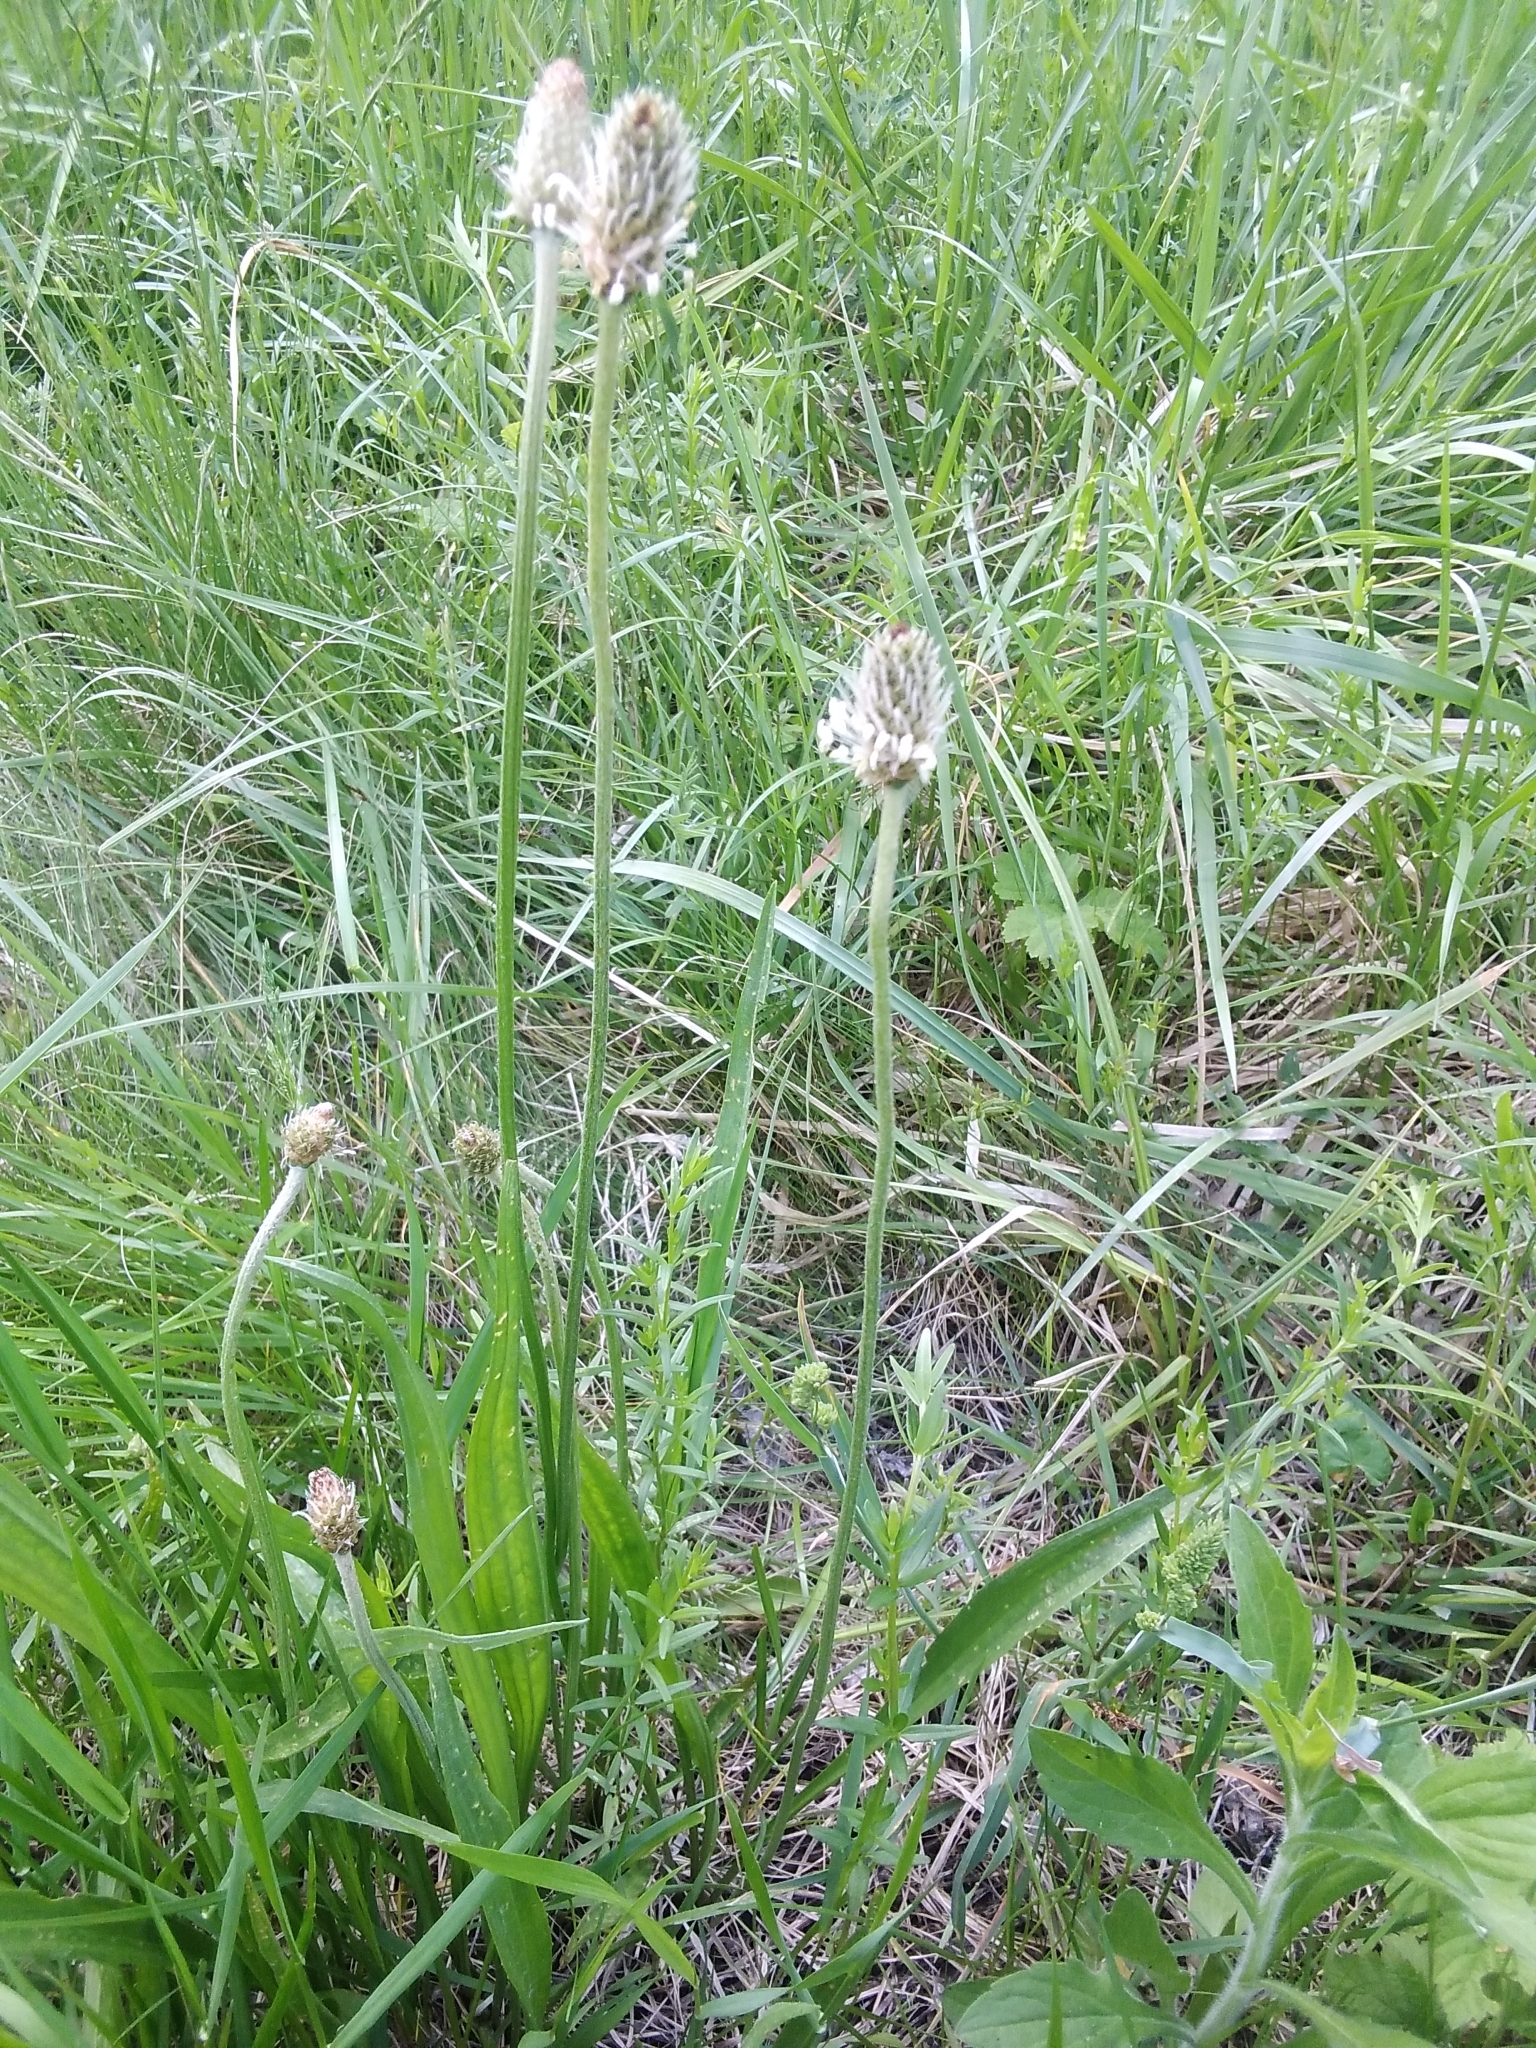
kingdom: Plantae
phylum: Tracheophyta
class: Magnoliopsida
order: Lamiales
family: Plantaginaceae
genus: Plantago
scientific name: Plantago lanceolata
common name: Ribwort plantain
